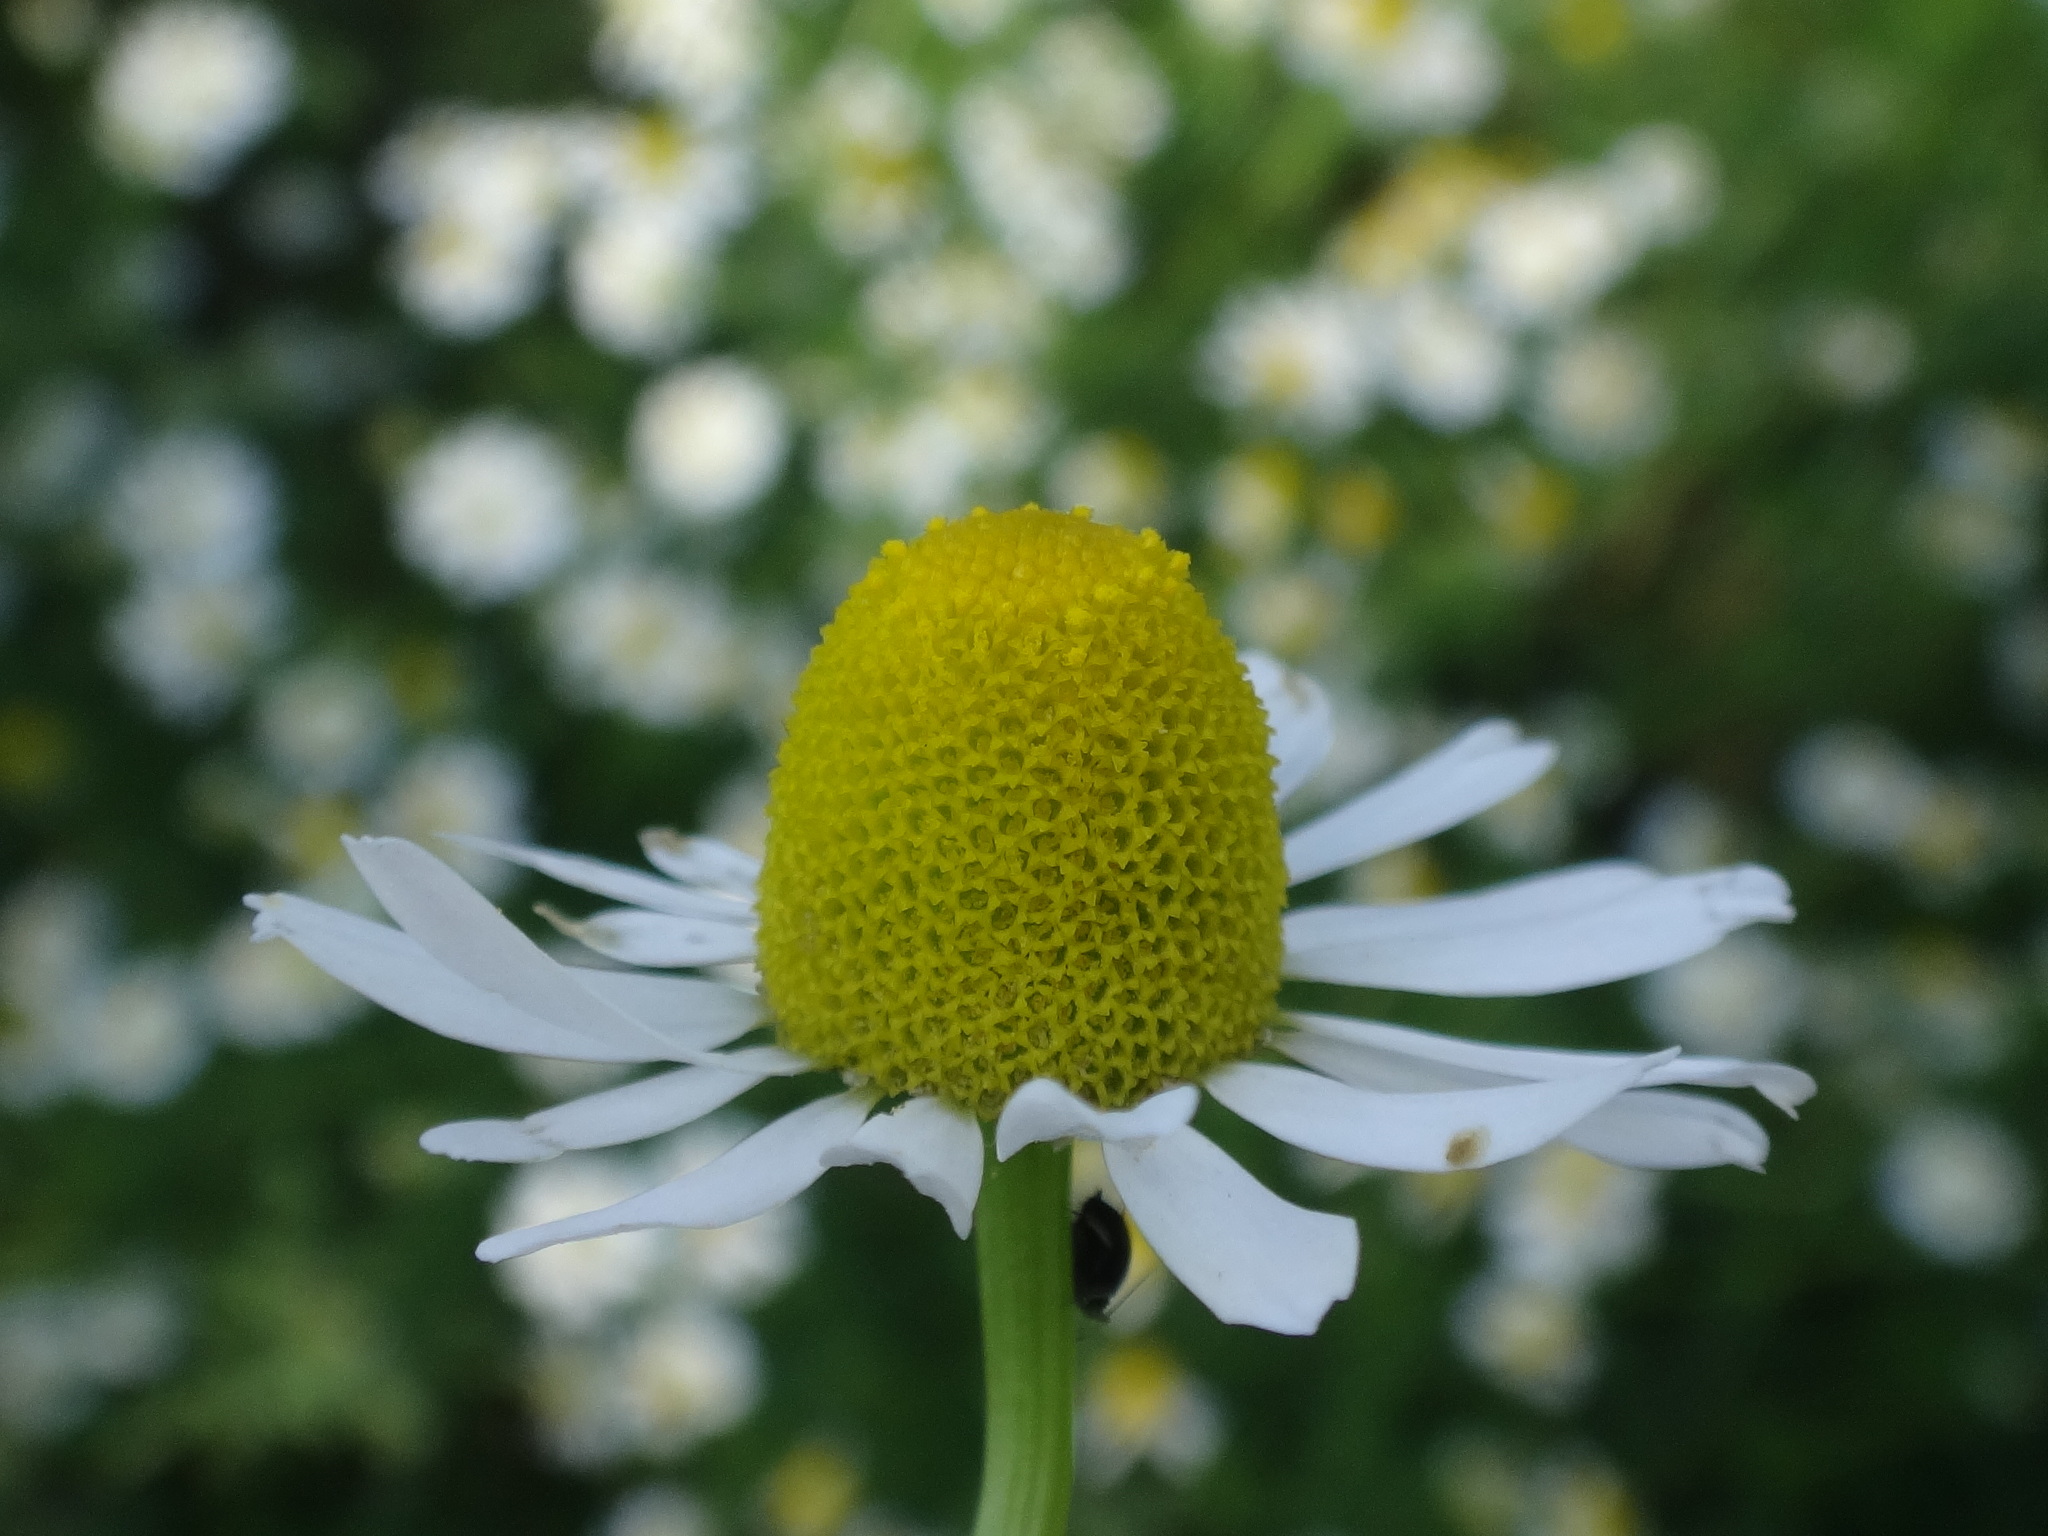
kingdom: Plantae
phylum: Tracheophyta
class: Magnoliopsida
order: Asterales
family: Asteraceae
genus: Matricaria
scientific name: Matricaria chamomilla
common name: Scented mayweed
